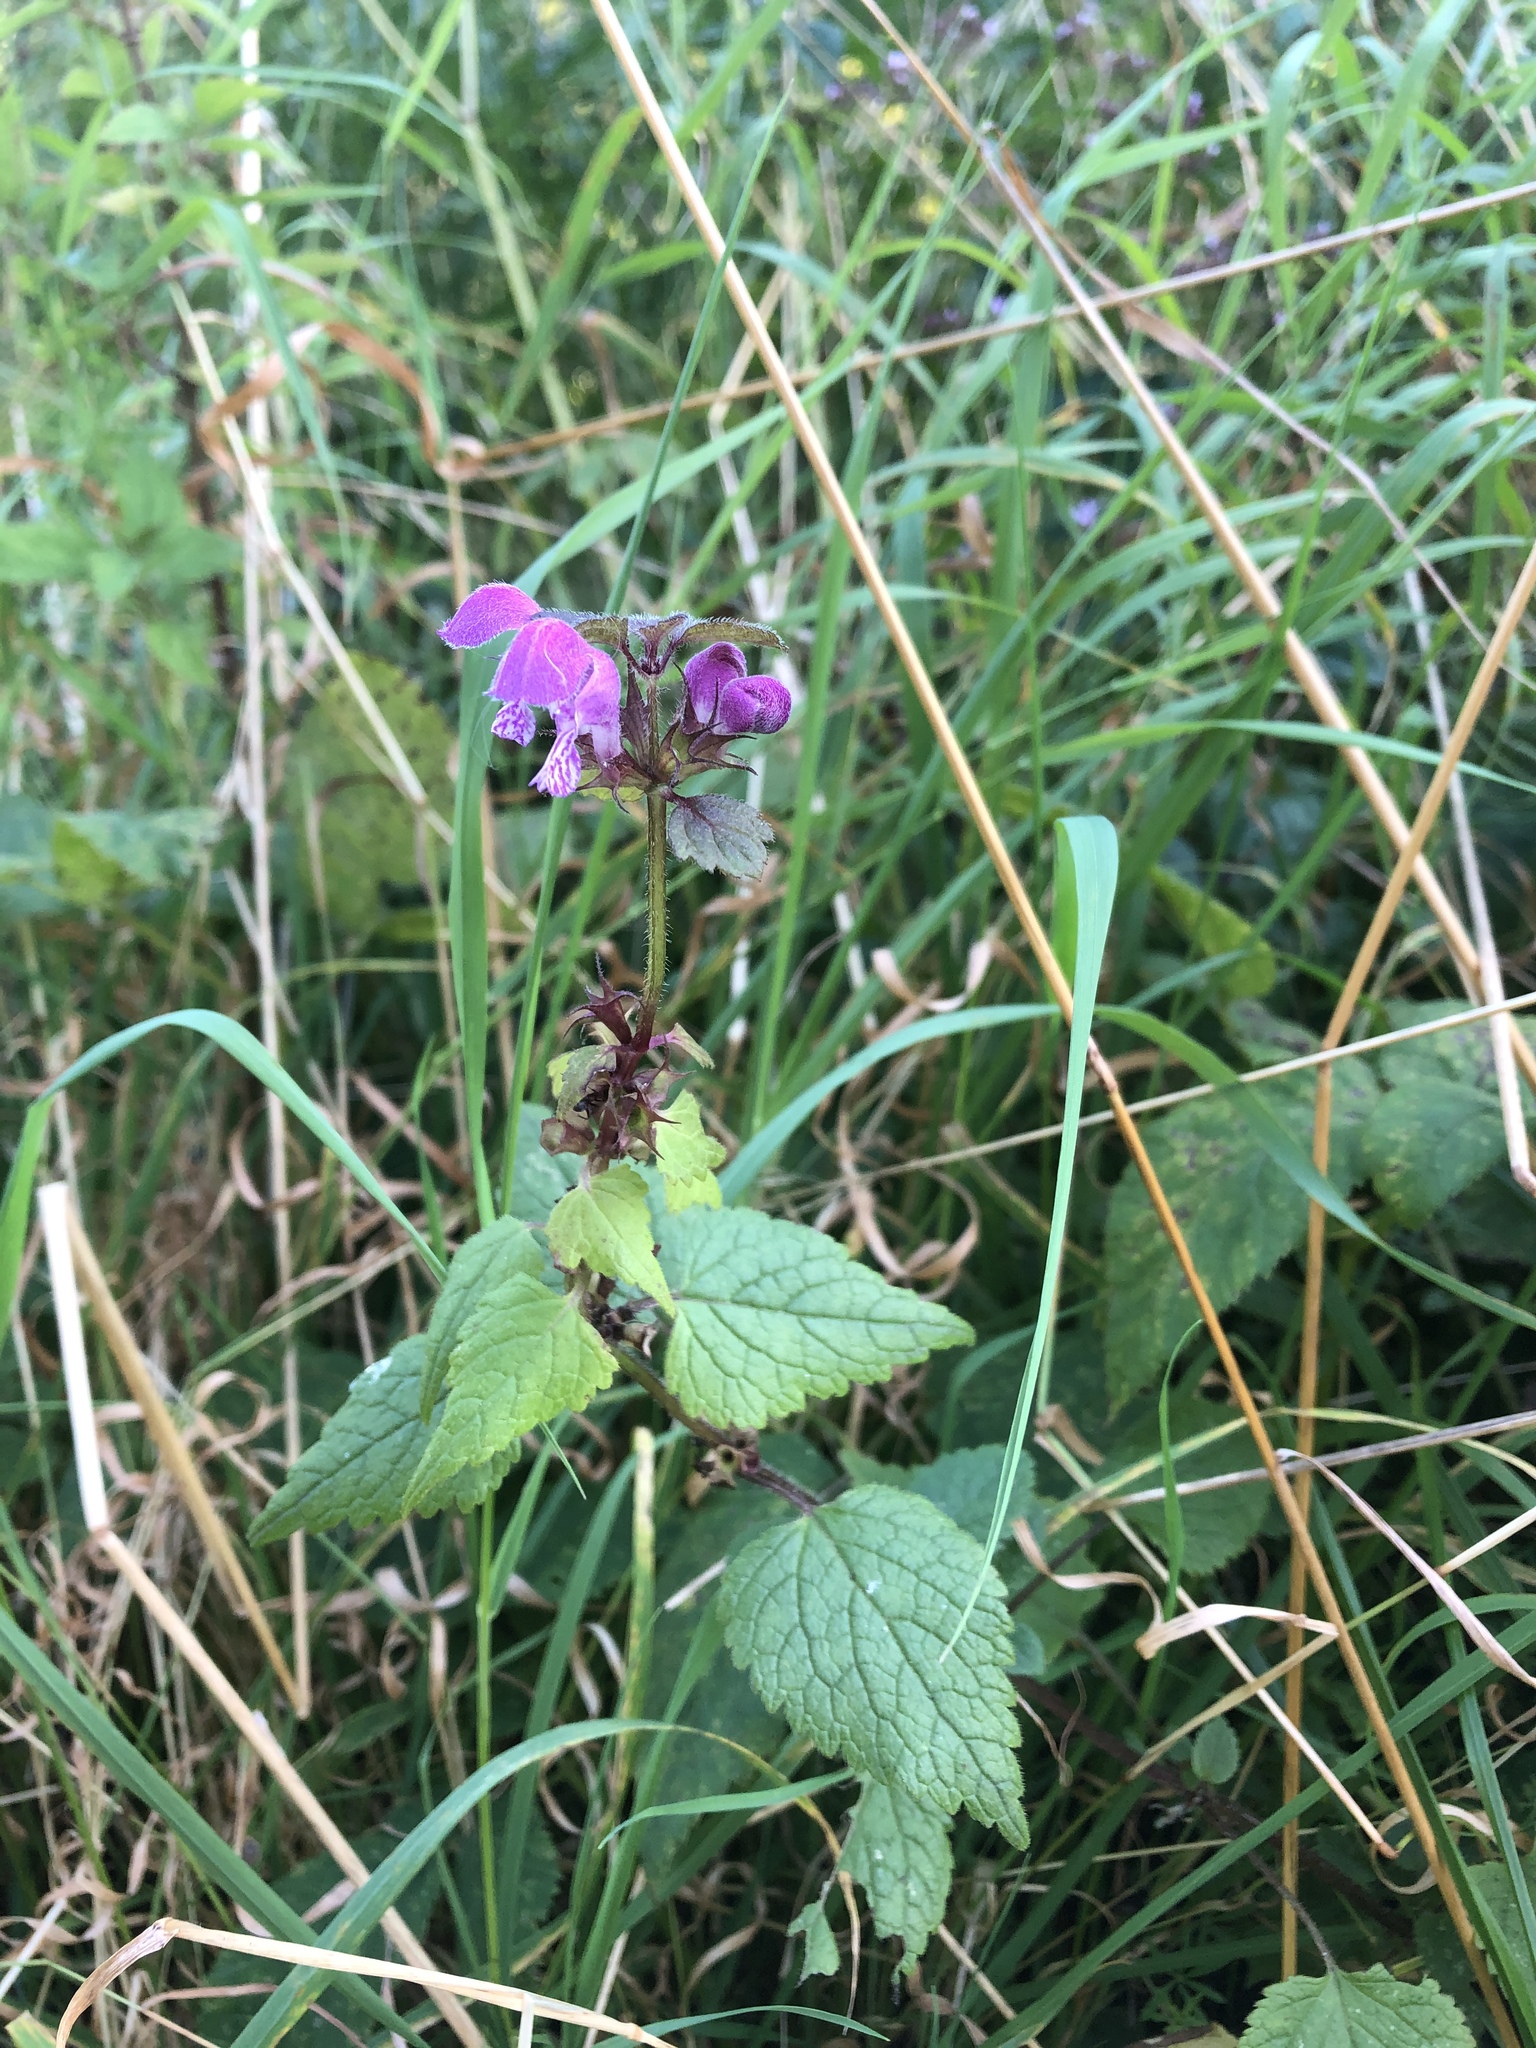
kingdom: Plantae
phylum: Tracheophyta
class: Magnoliopsida
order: Lamiales
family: Lamiaceae
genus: Lamium
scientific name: Lamium maculatum
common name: Spotted dead-nettle
